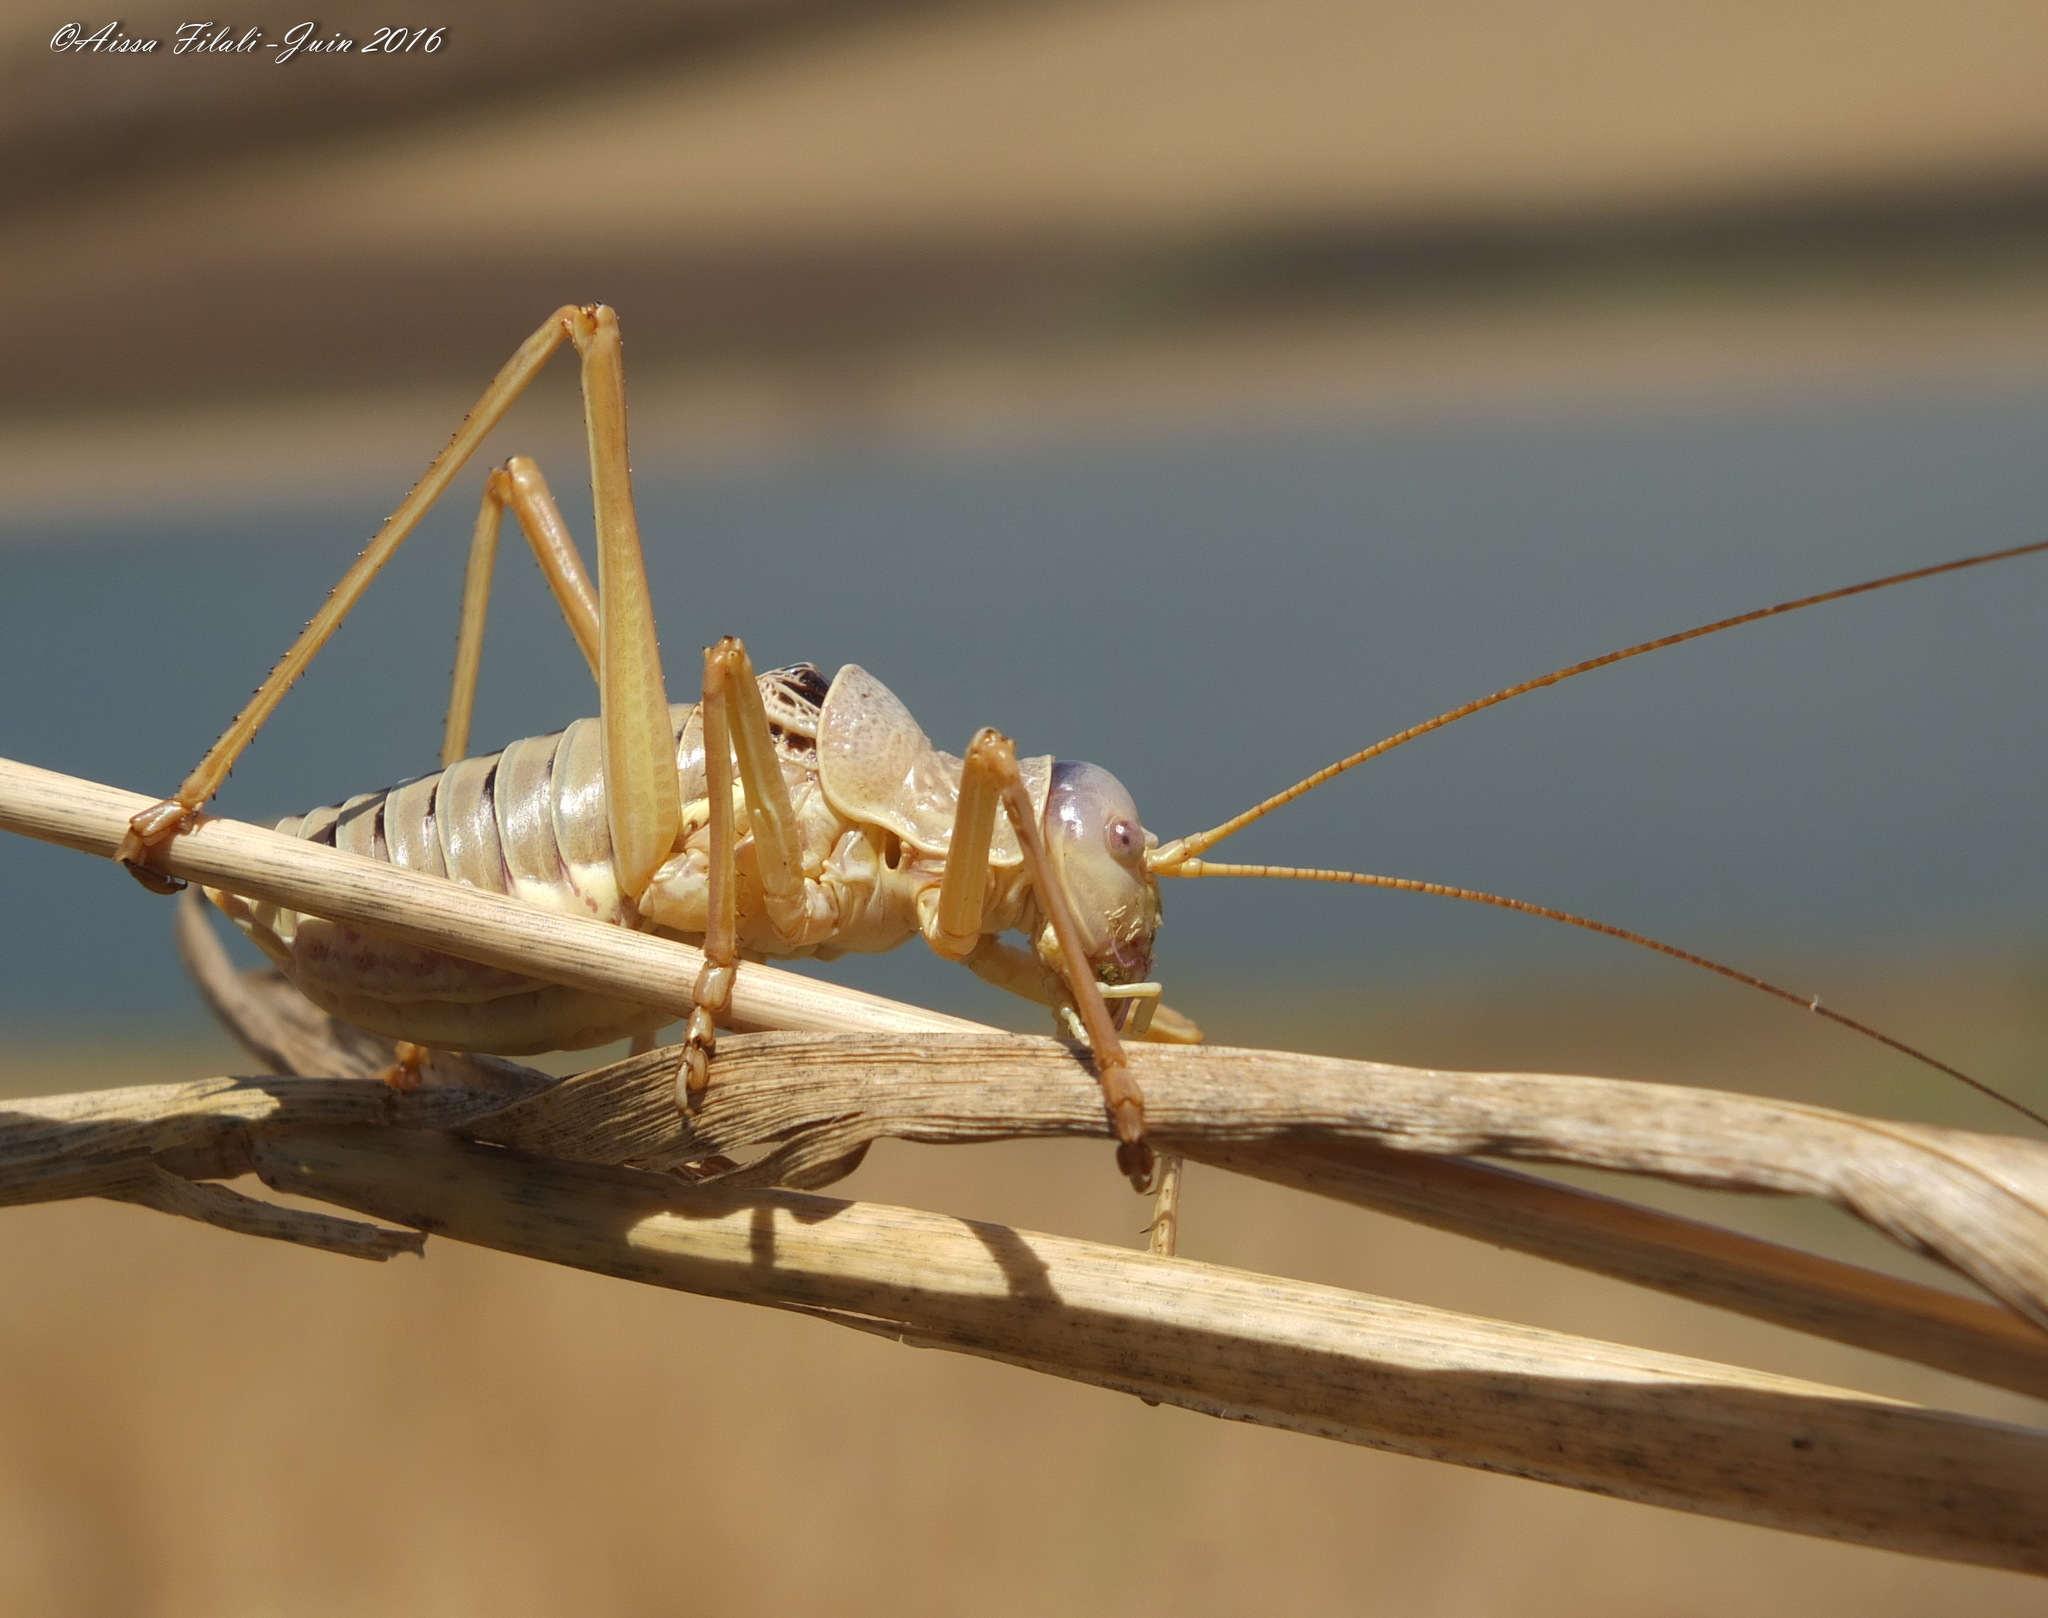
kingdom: Animalia
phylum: Arthropoda
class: Insecta
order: Orthoptera
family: Tettigoniidae
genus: Lucasinova
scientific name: Lucasinova nigromarginata
